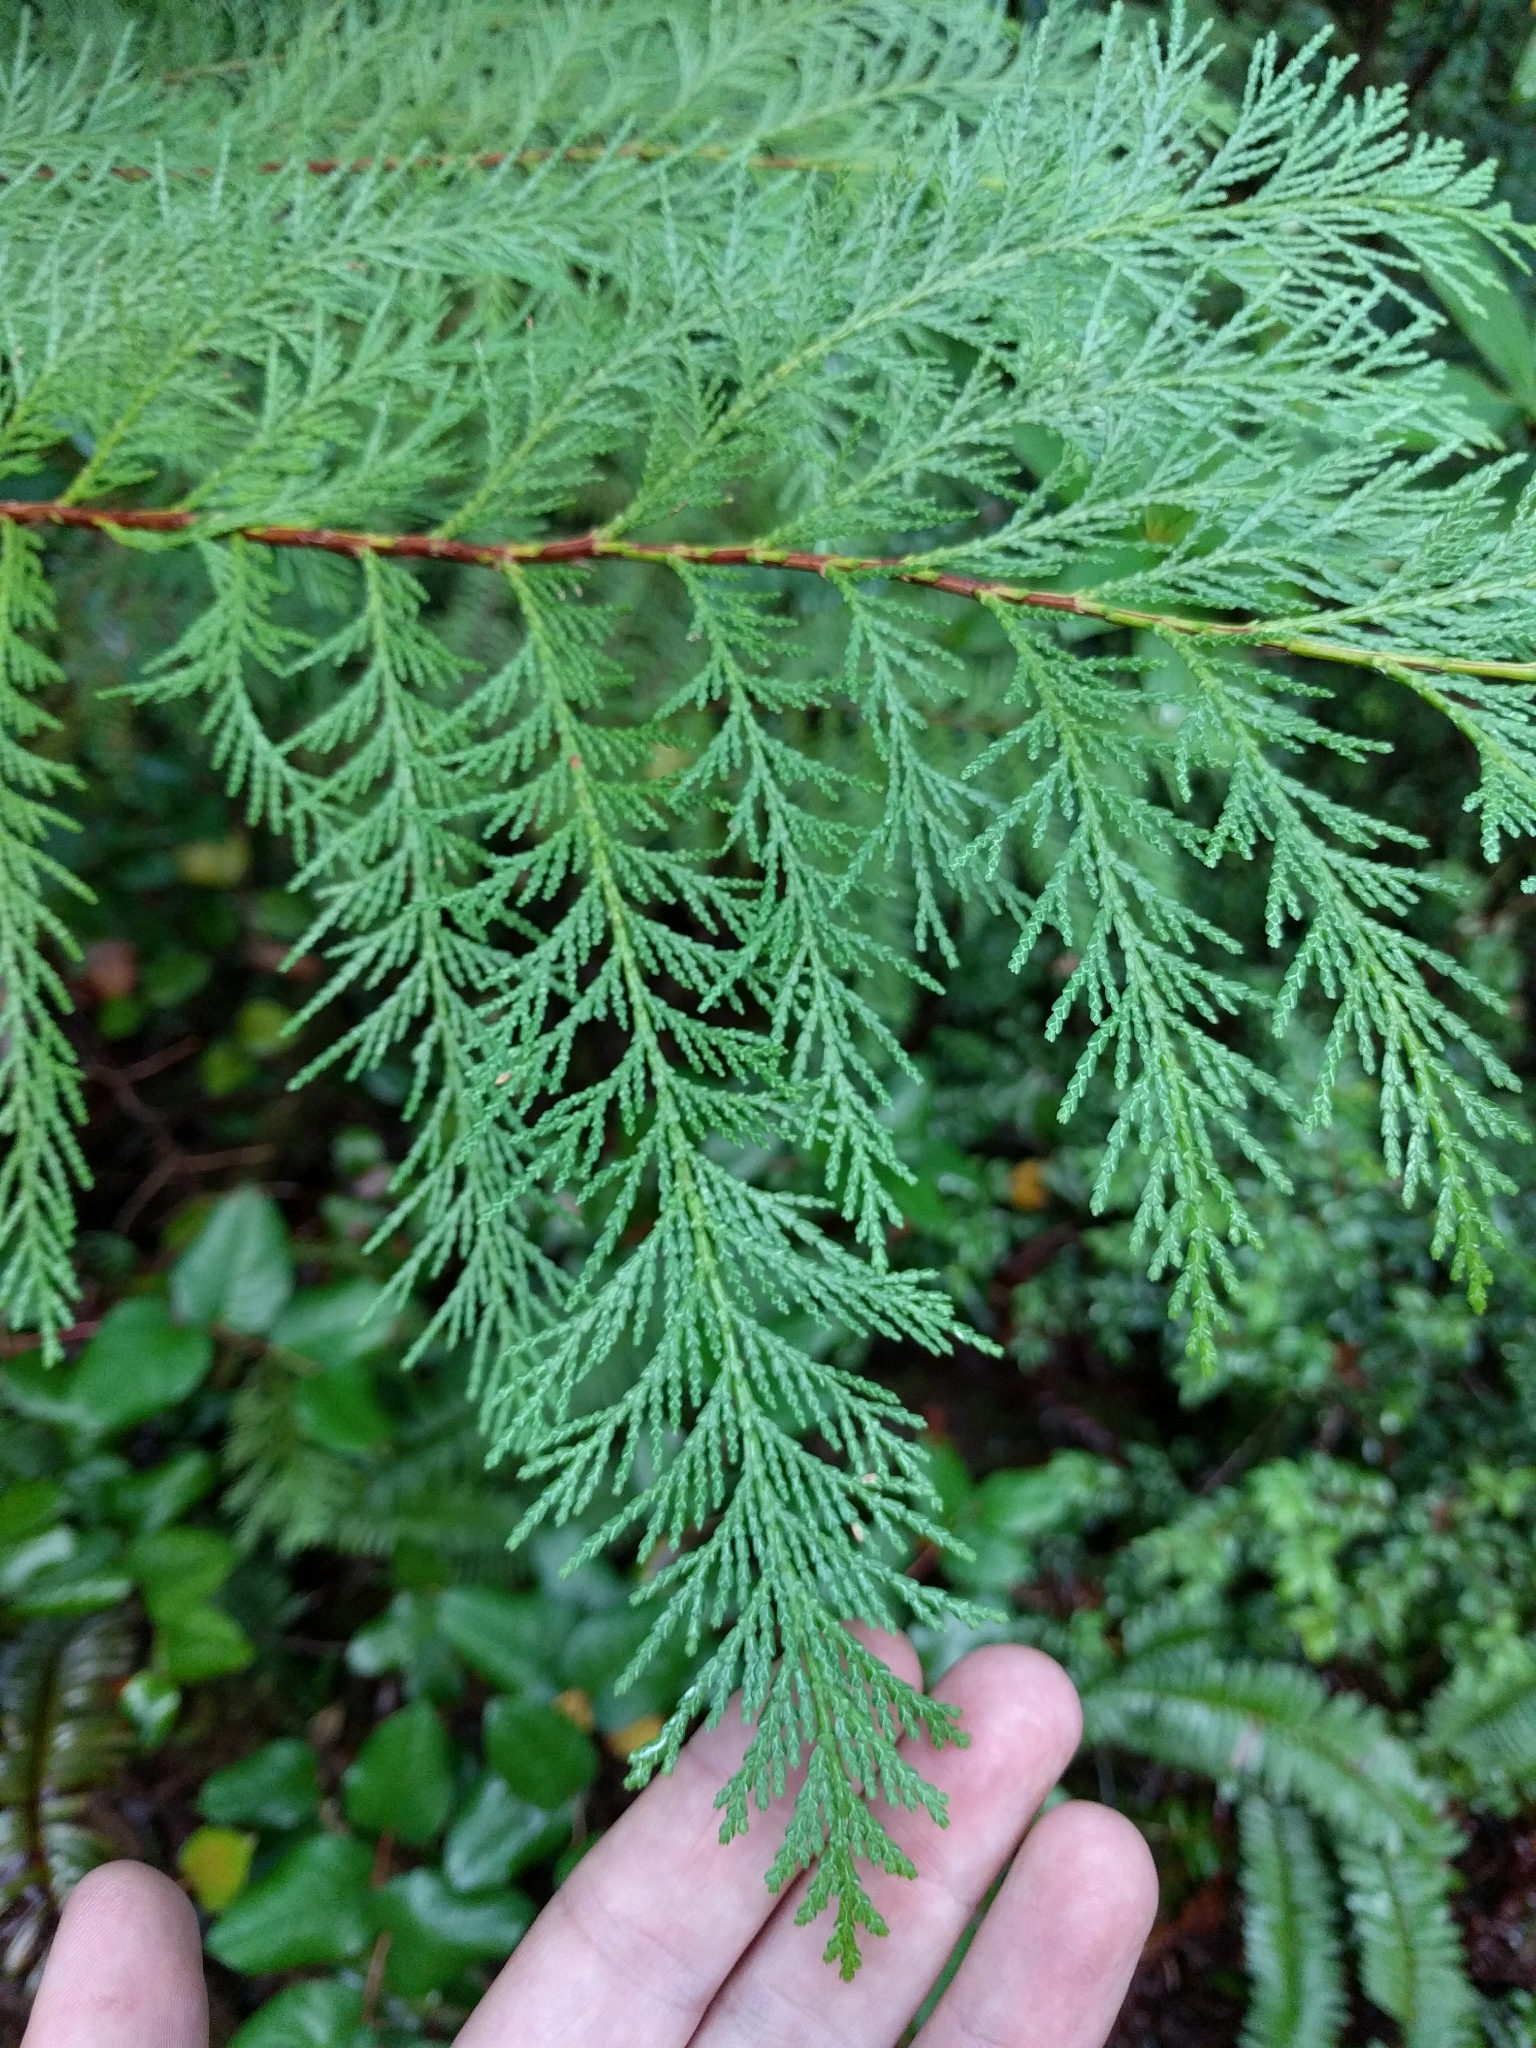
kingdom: Plantae
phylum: Tracheophyta
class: Pinopsida
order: Pinales
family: Cupressaceae
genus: Chamaecyparis
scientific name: Chamaecyparis lawsoniana
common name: Lawson's cypress
